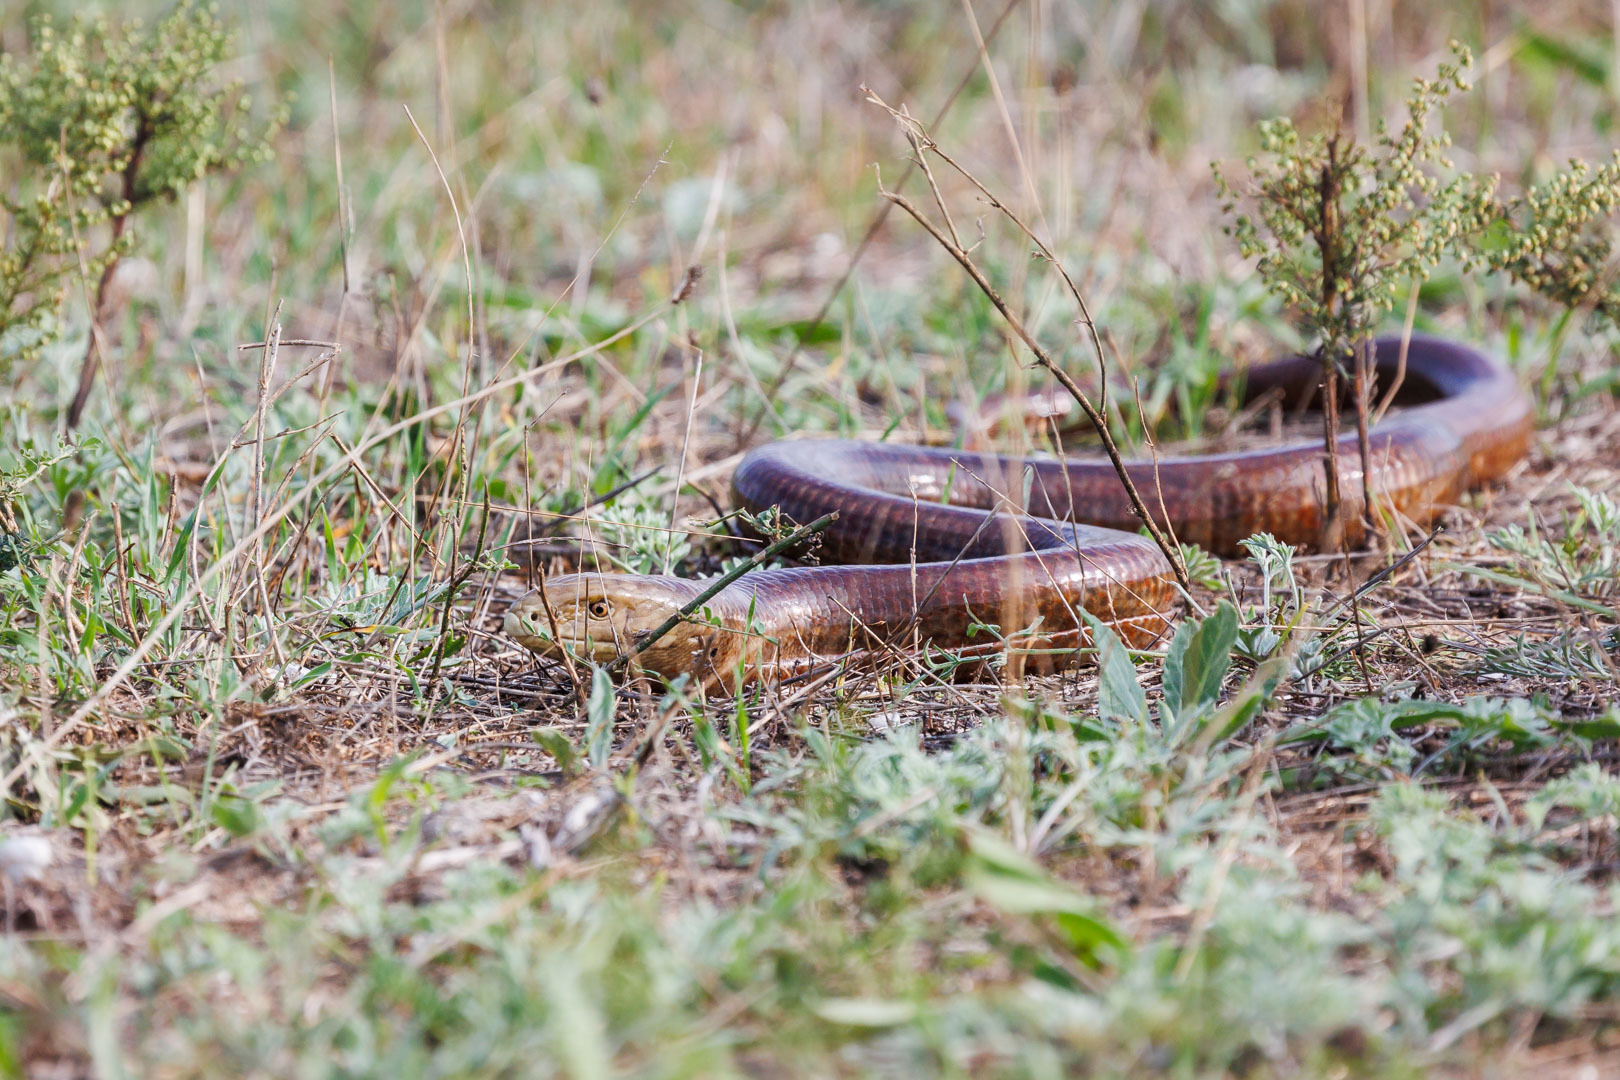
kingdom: Animalia
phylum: Chordata
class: Squamata
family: Anguidae
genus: Pseudopus
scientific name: Pseudopus apodus
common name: European glass lizard
